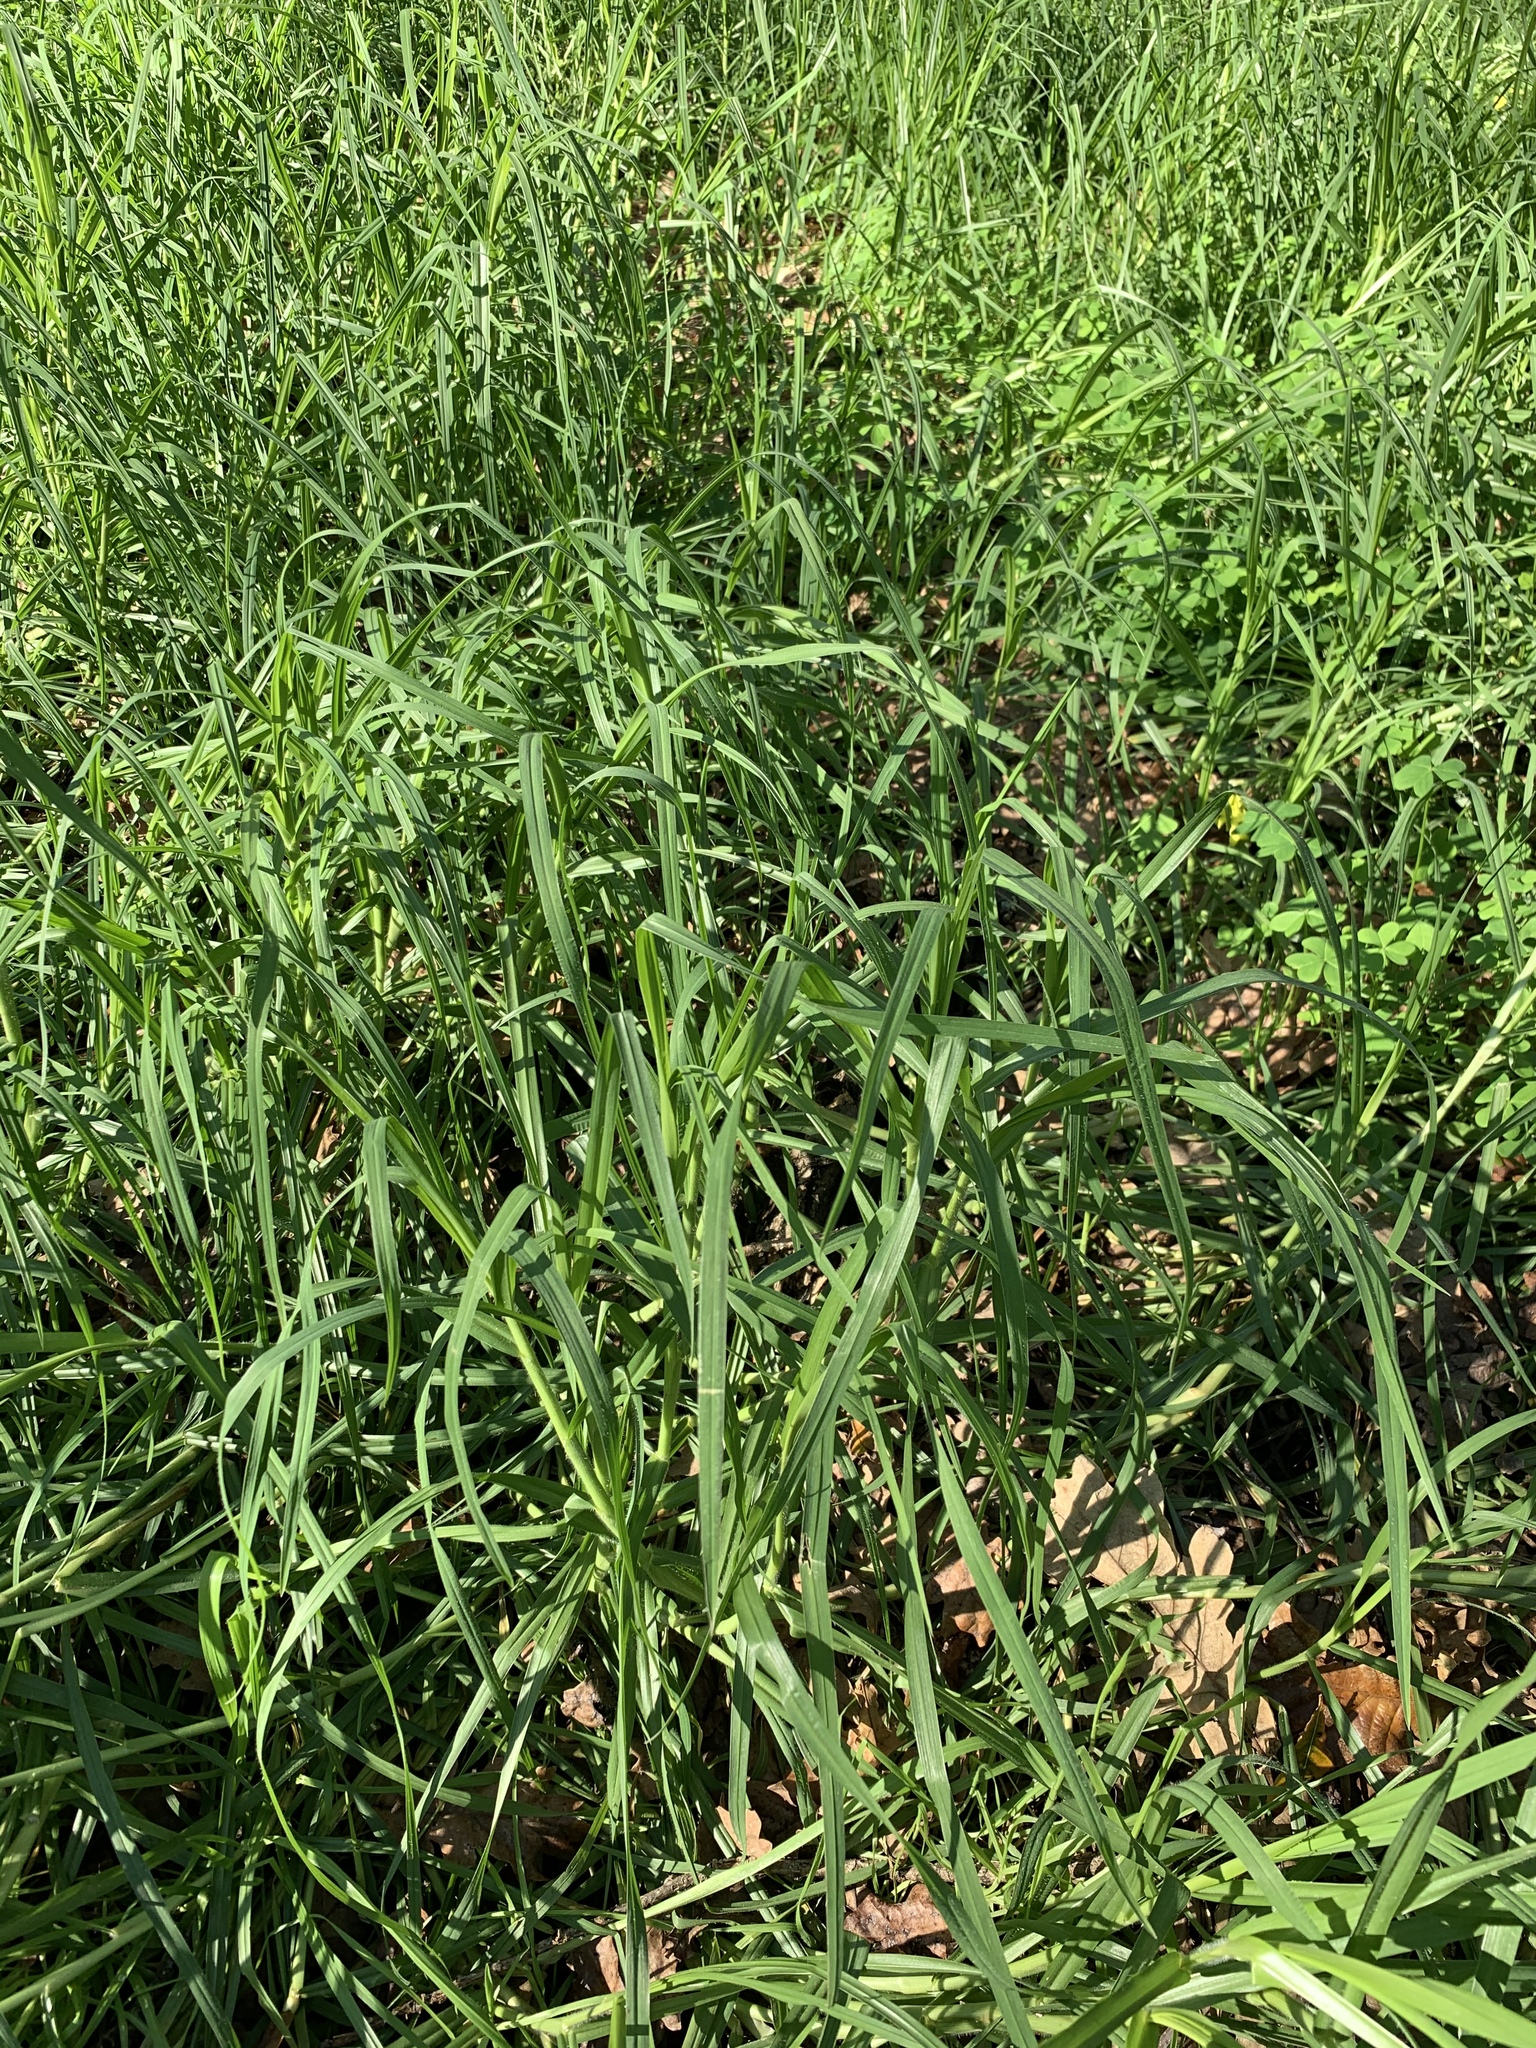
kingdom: Plantae
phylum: Tracheophyta
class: Liliopsida
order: Poales
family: Poaceae
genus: Cenchrus
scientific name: Cenchrus clandestinus
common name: Kikuyugrass
